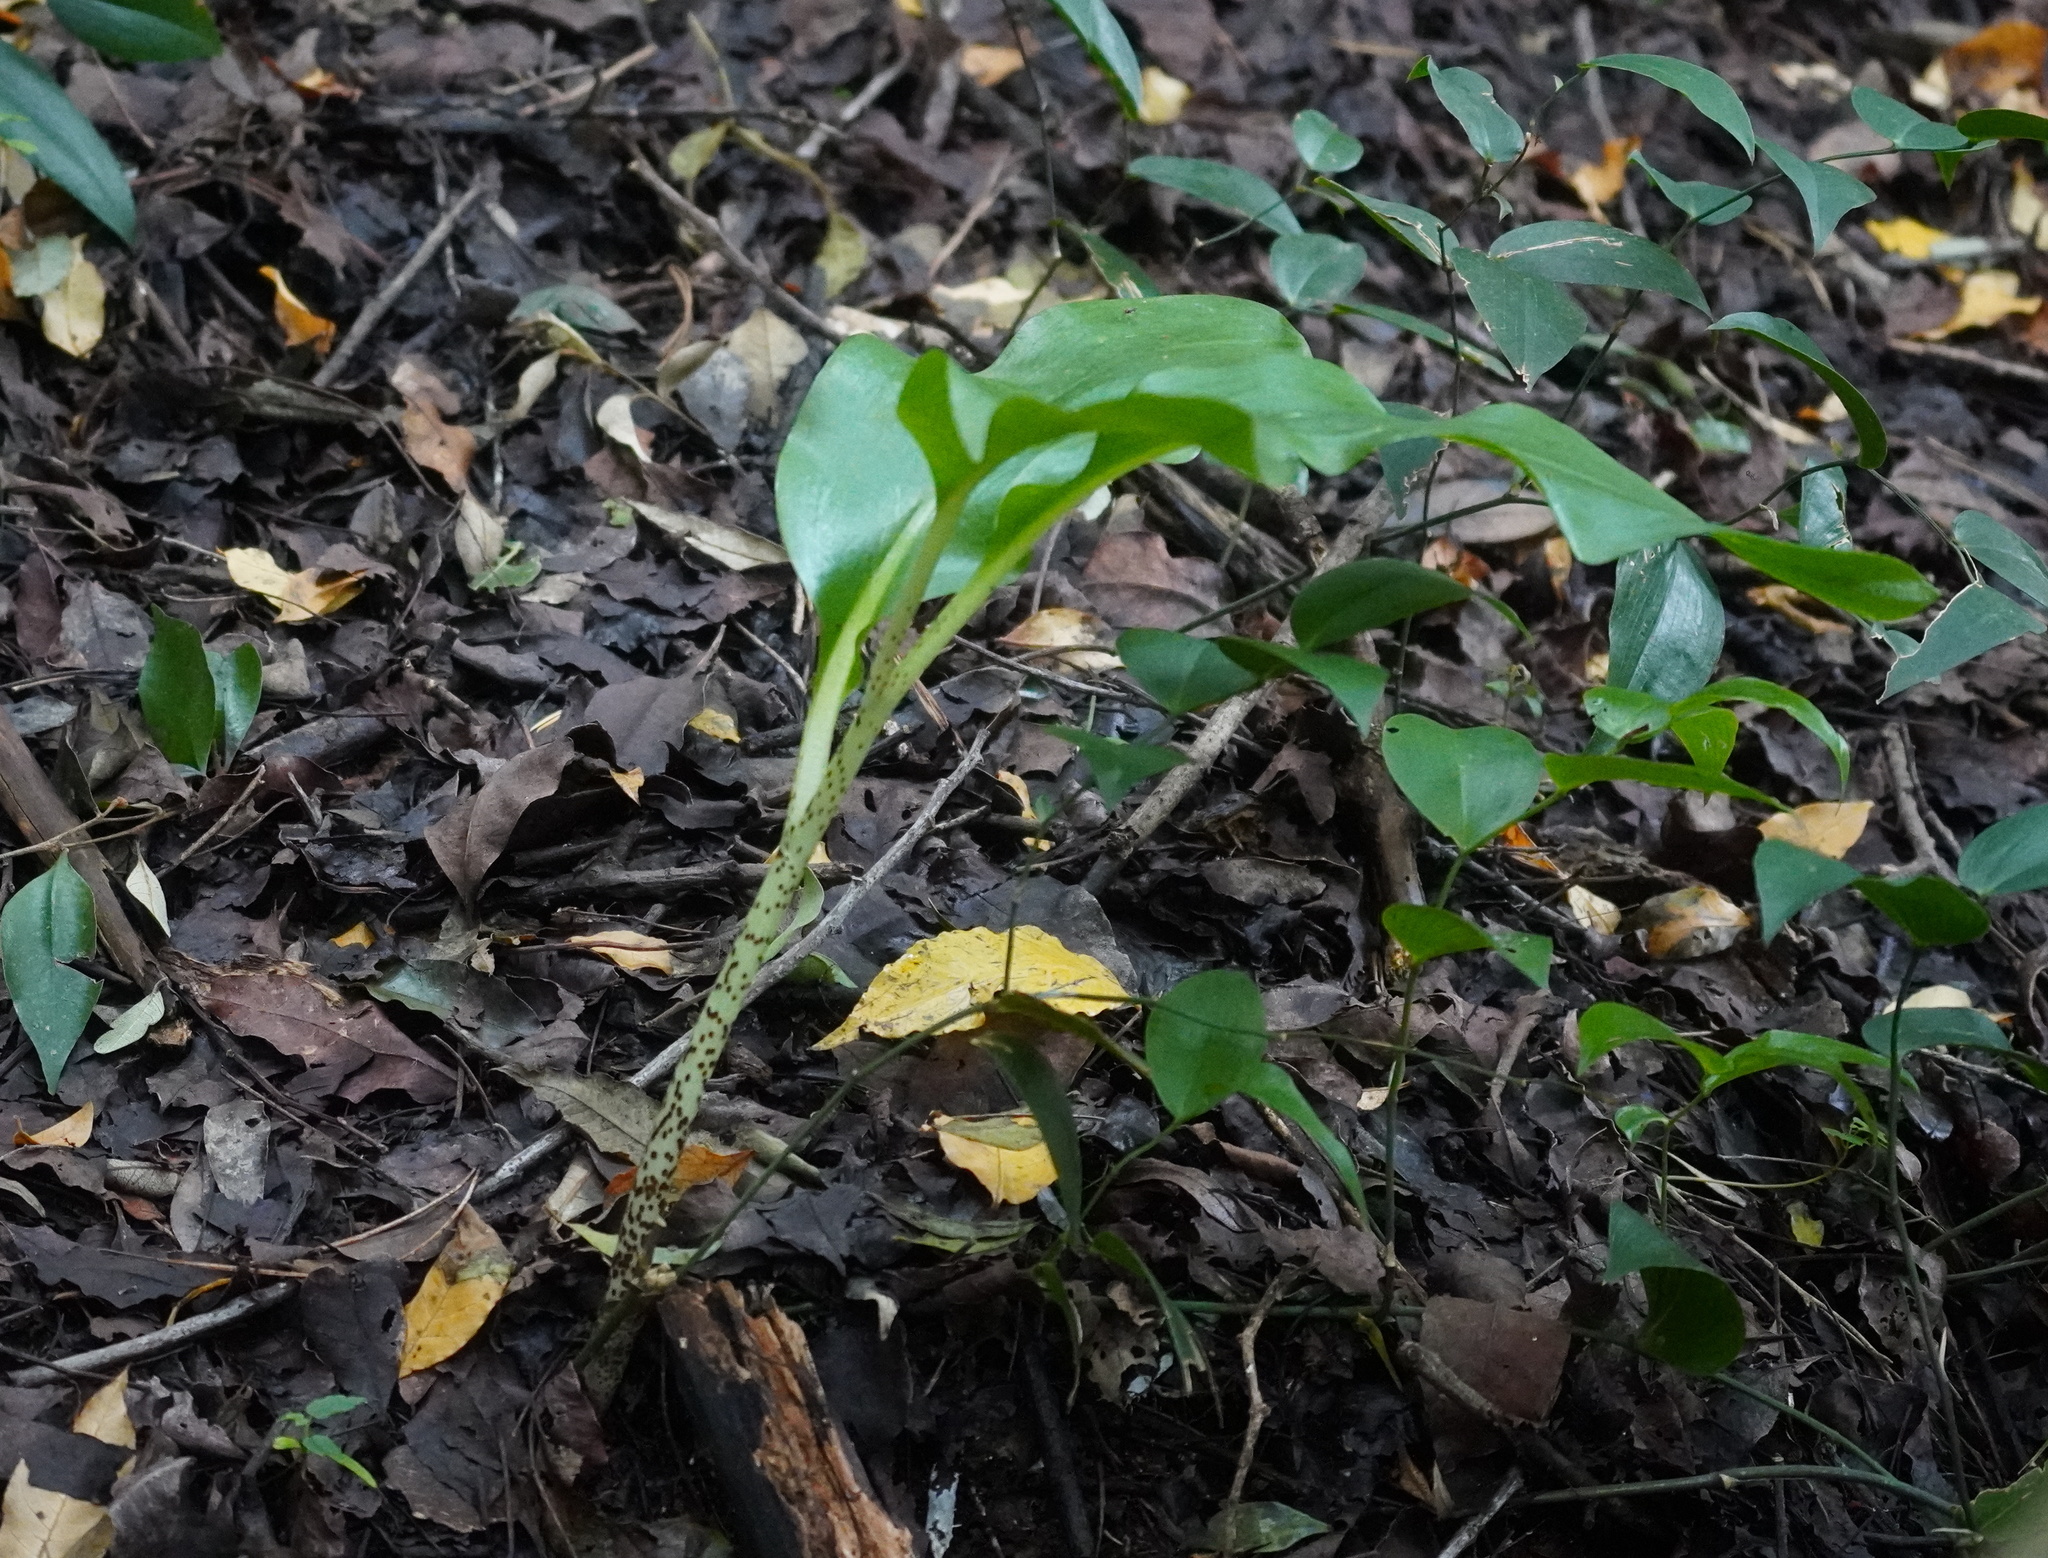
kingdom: Plantae
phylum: Tracheophyta
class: Liliopsida
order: Asparagales
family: Amaryllidaceae
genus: Scadoxus
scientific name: Scadoxus puniceus
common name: Royal-paintbrush
